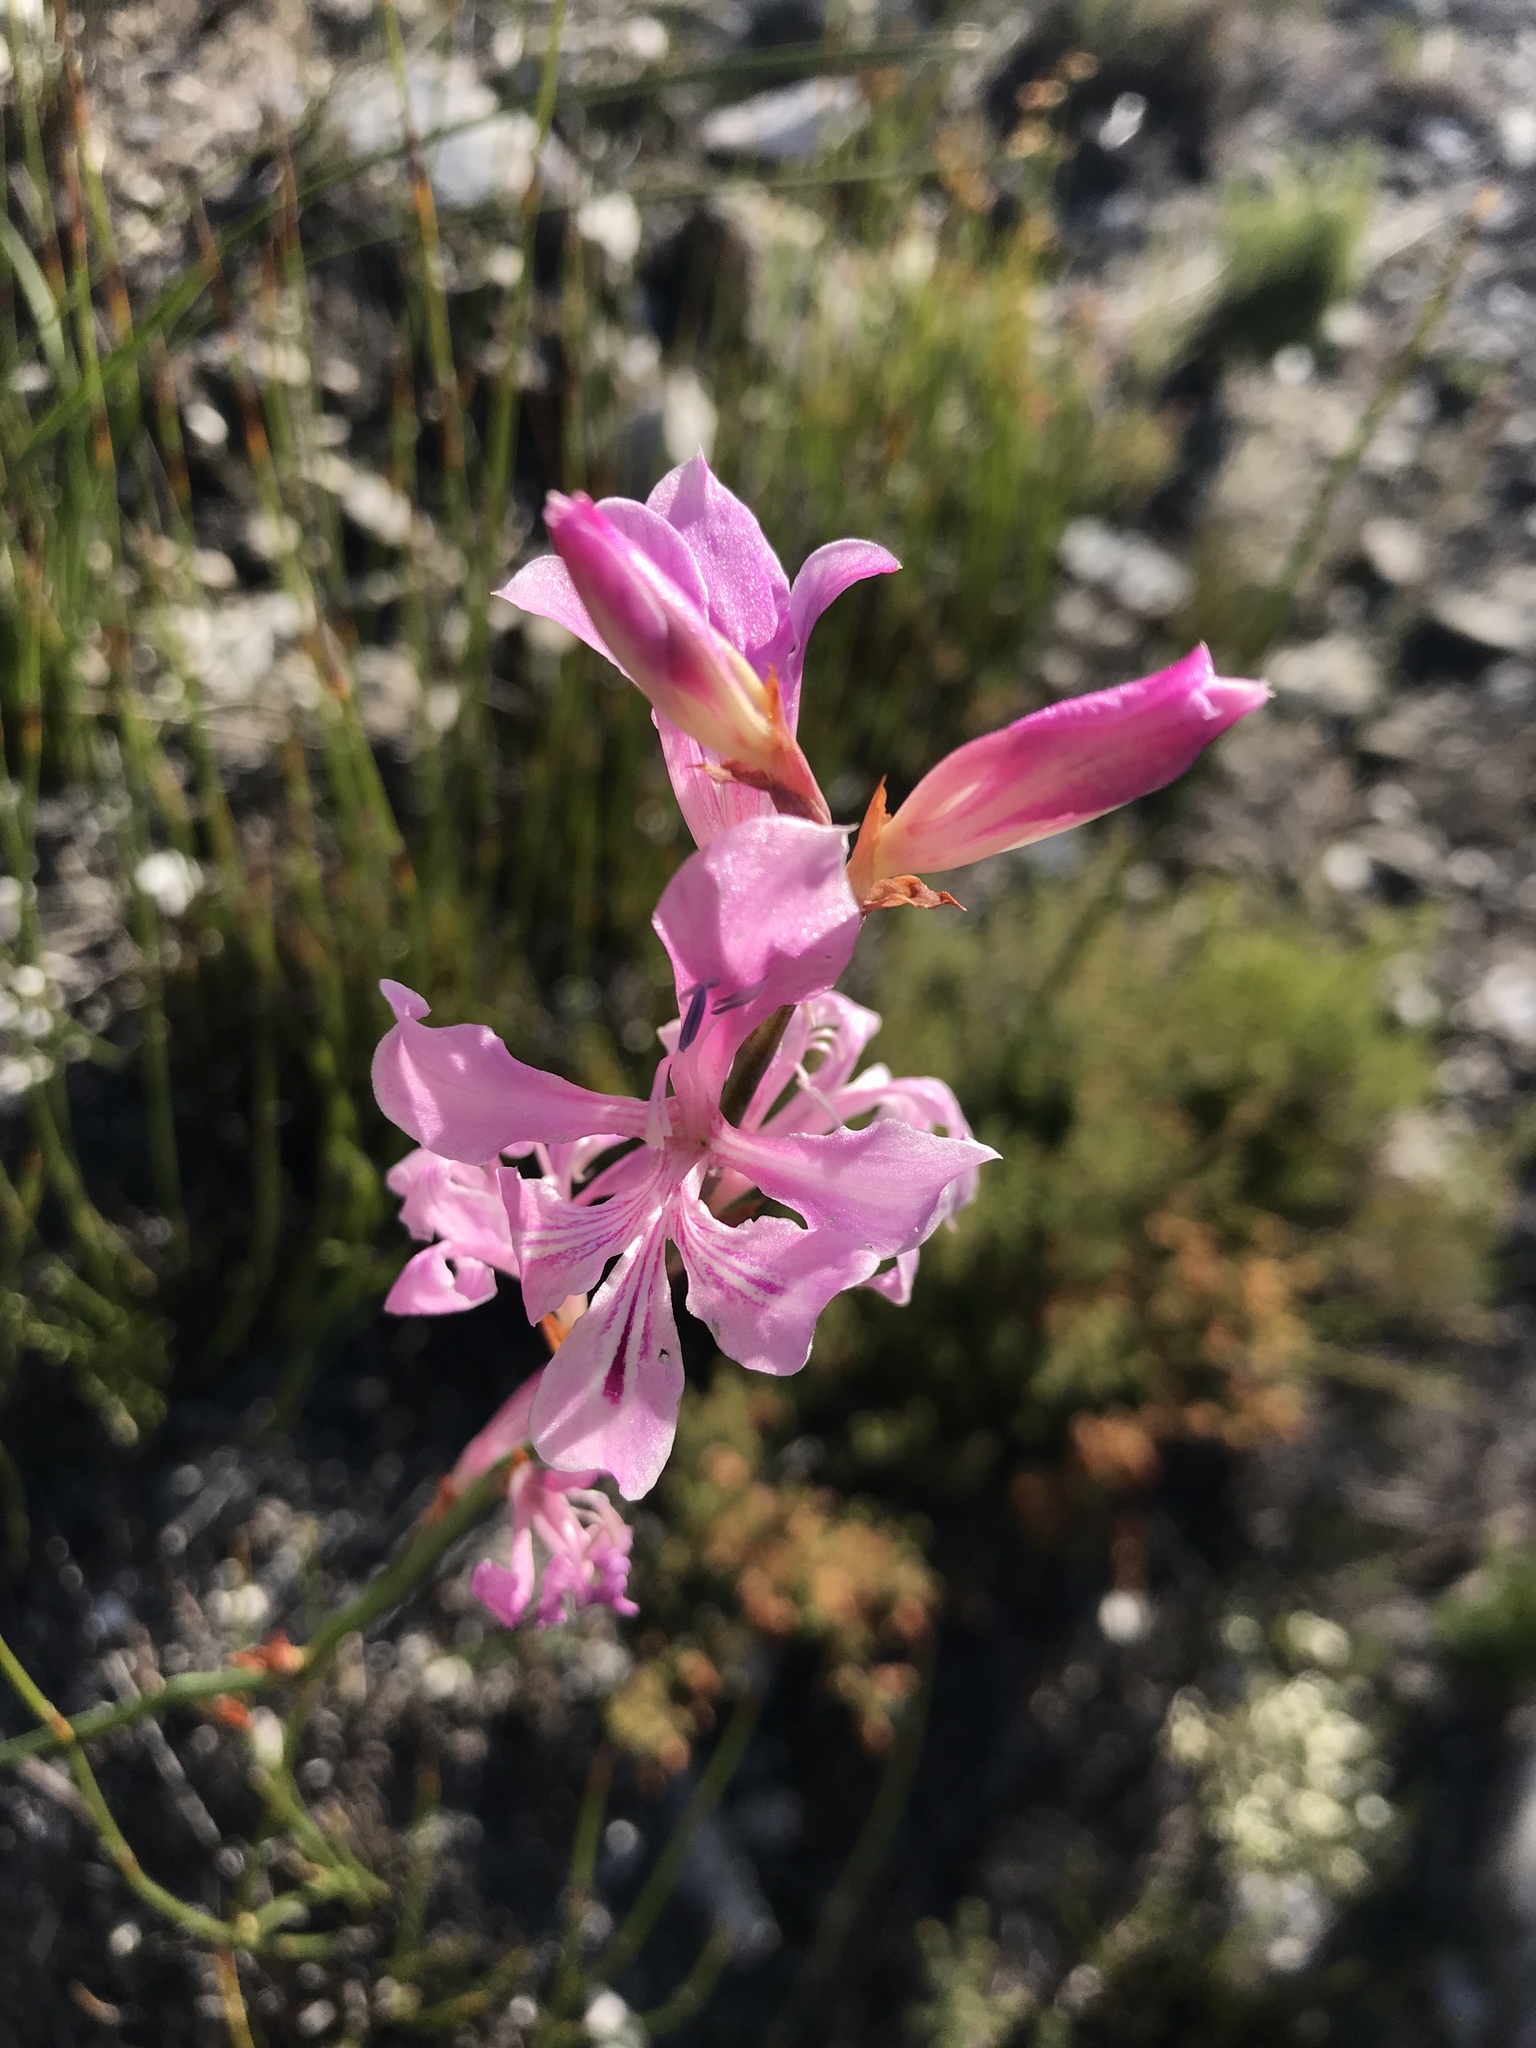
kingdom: Plantae
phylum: Tracheophyta
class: Liliopsida
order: Asparagales
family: Iridaceae
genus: Tritoniopsis
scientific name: Tritoniopsis lata
